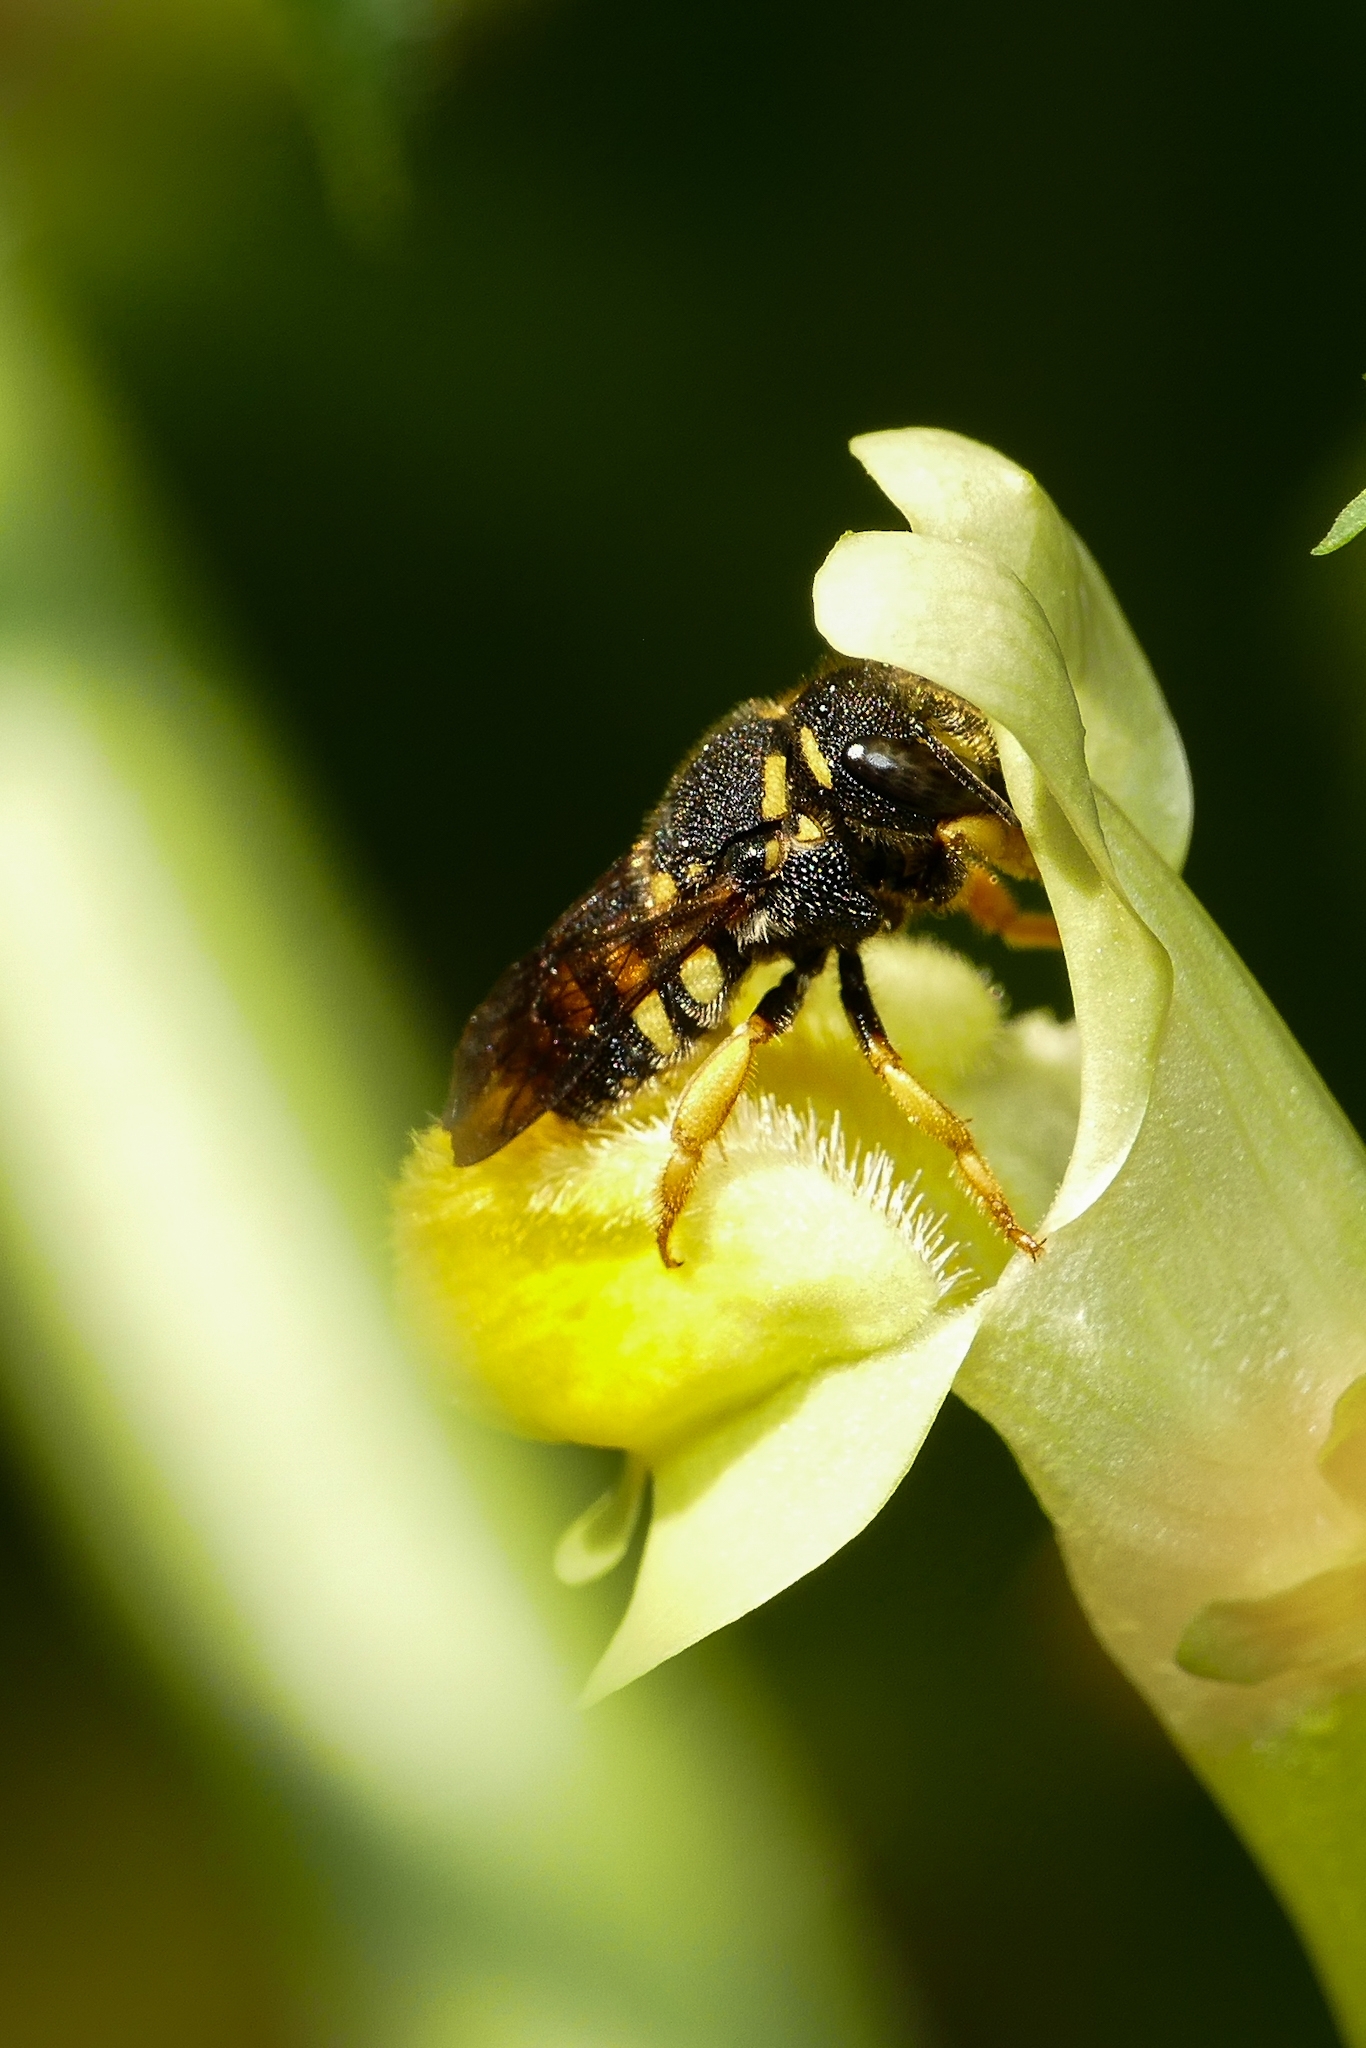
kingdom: Animalia
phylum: Arthropoda
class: Insecta
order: Hymenoptera
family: Megachilidae
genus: Anthidiellum
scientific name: Anthidiellum strigatum
